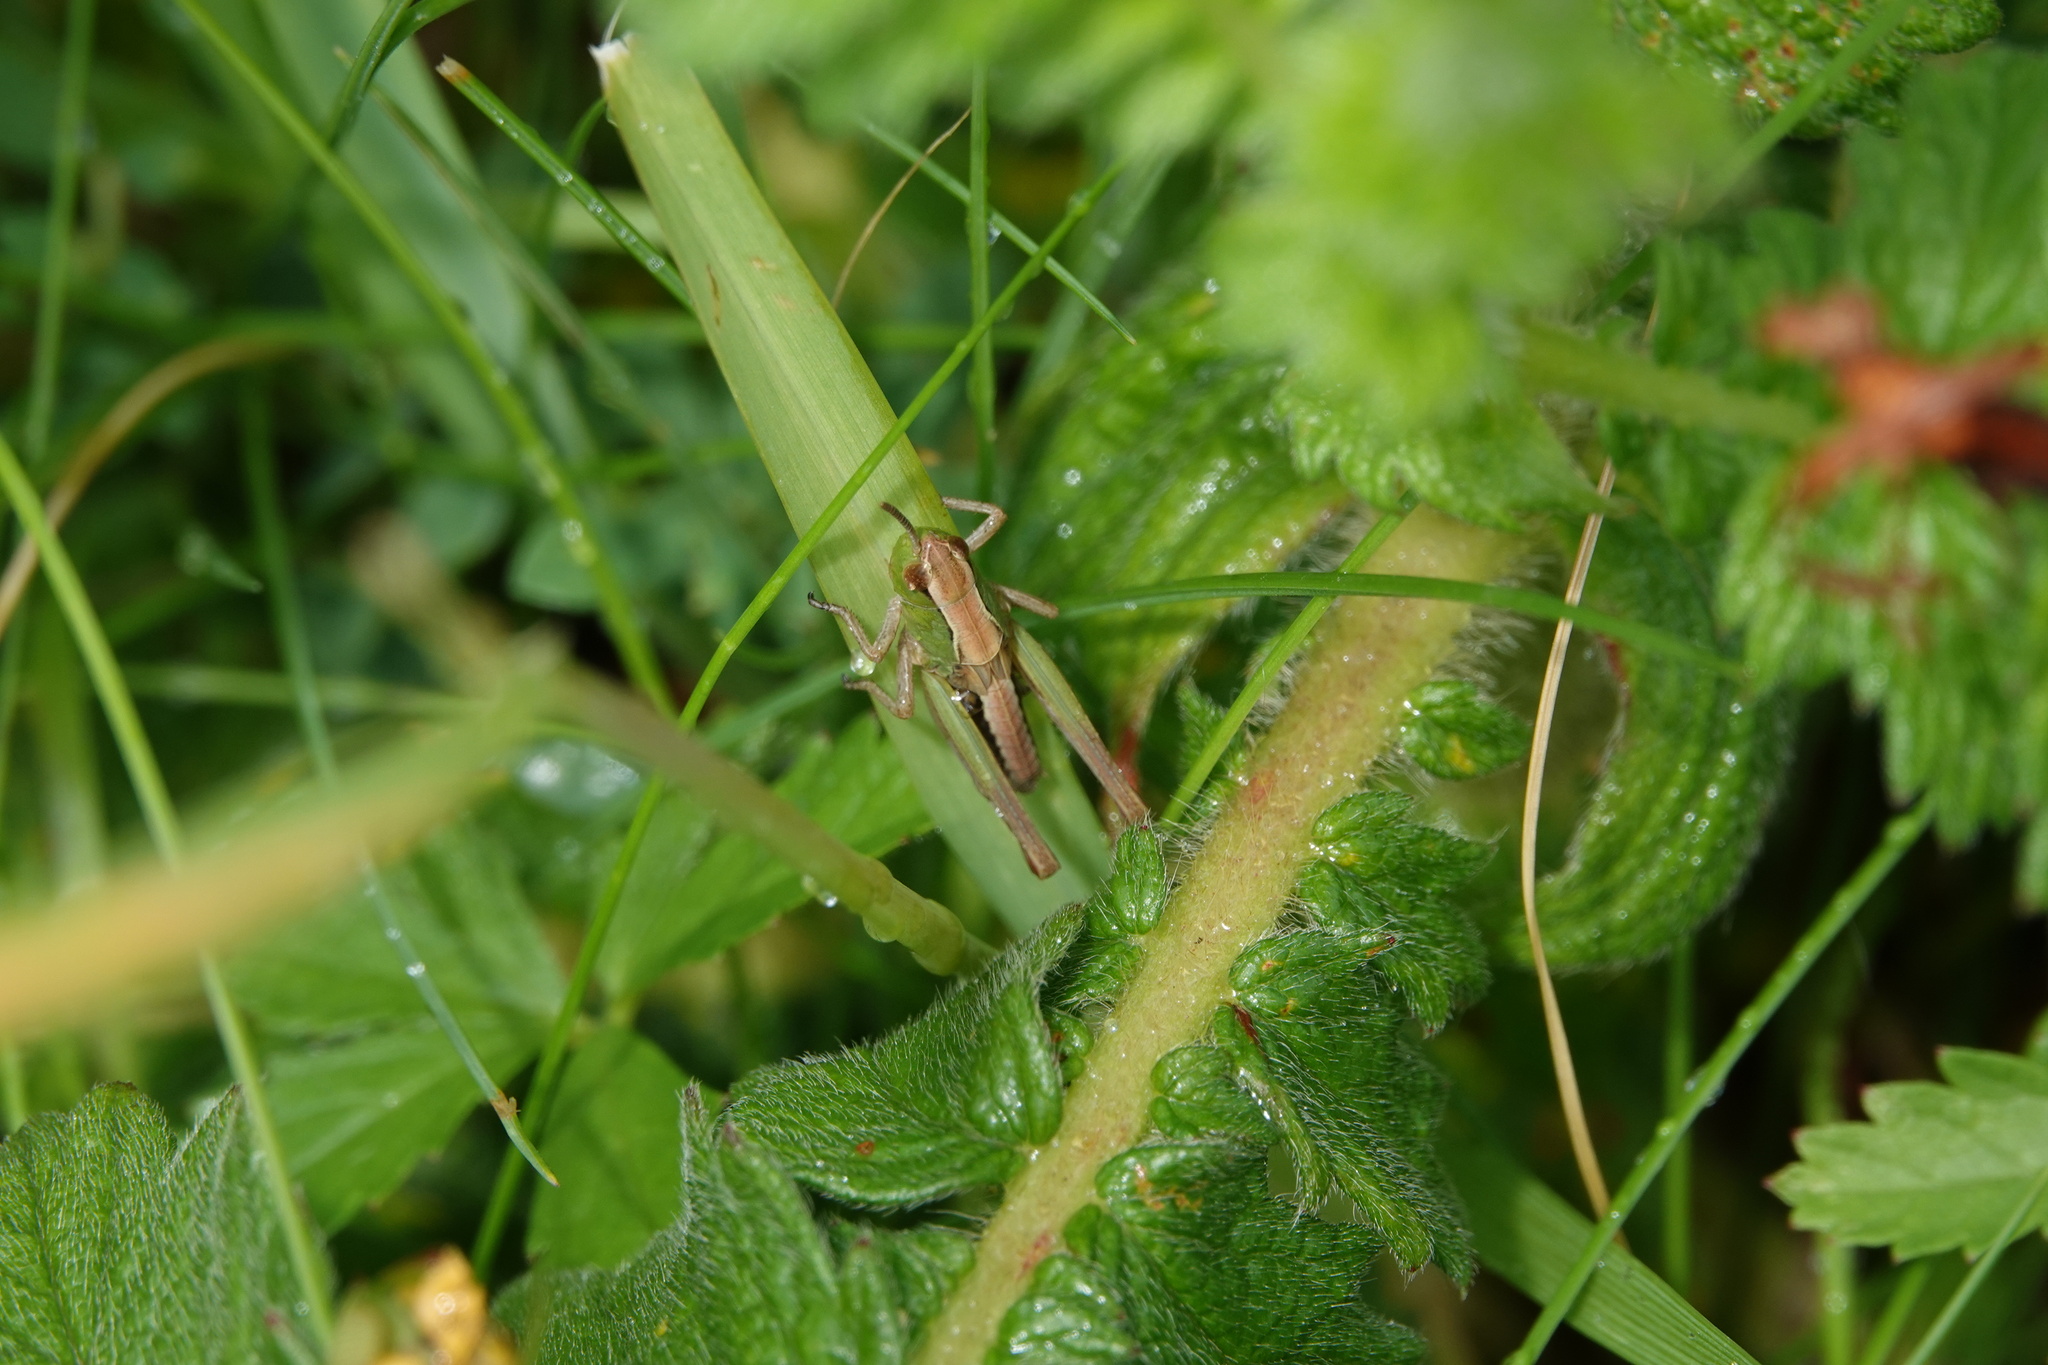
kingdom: Animalia
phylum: Arthropoda
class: Insecta
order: Orthoptera
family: Acrididae
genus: Pseudochorthippus
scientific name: Pseudochorthippus parallelus
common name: Meadow grasshopper
